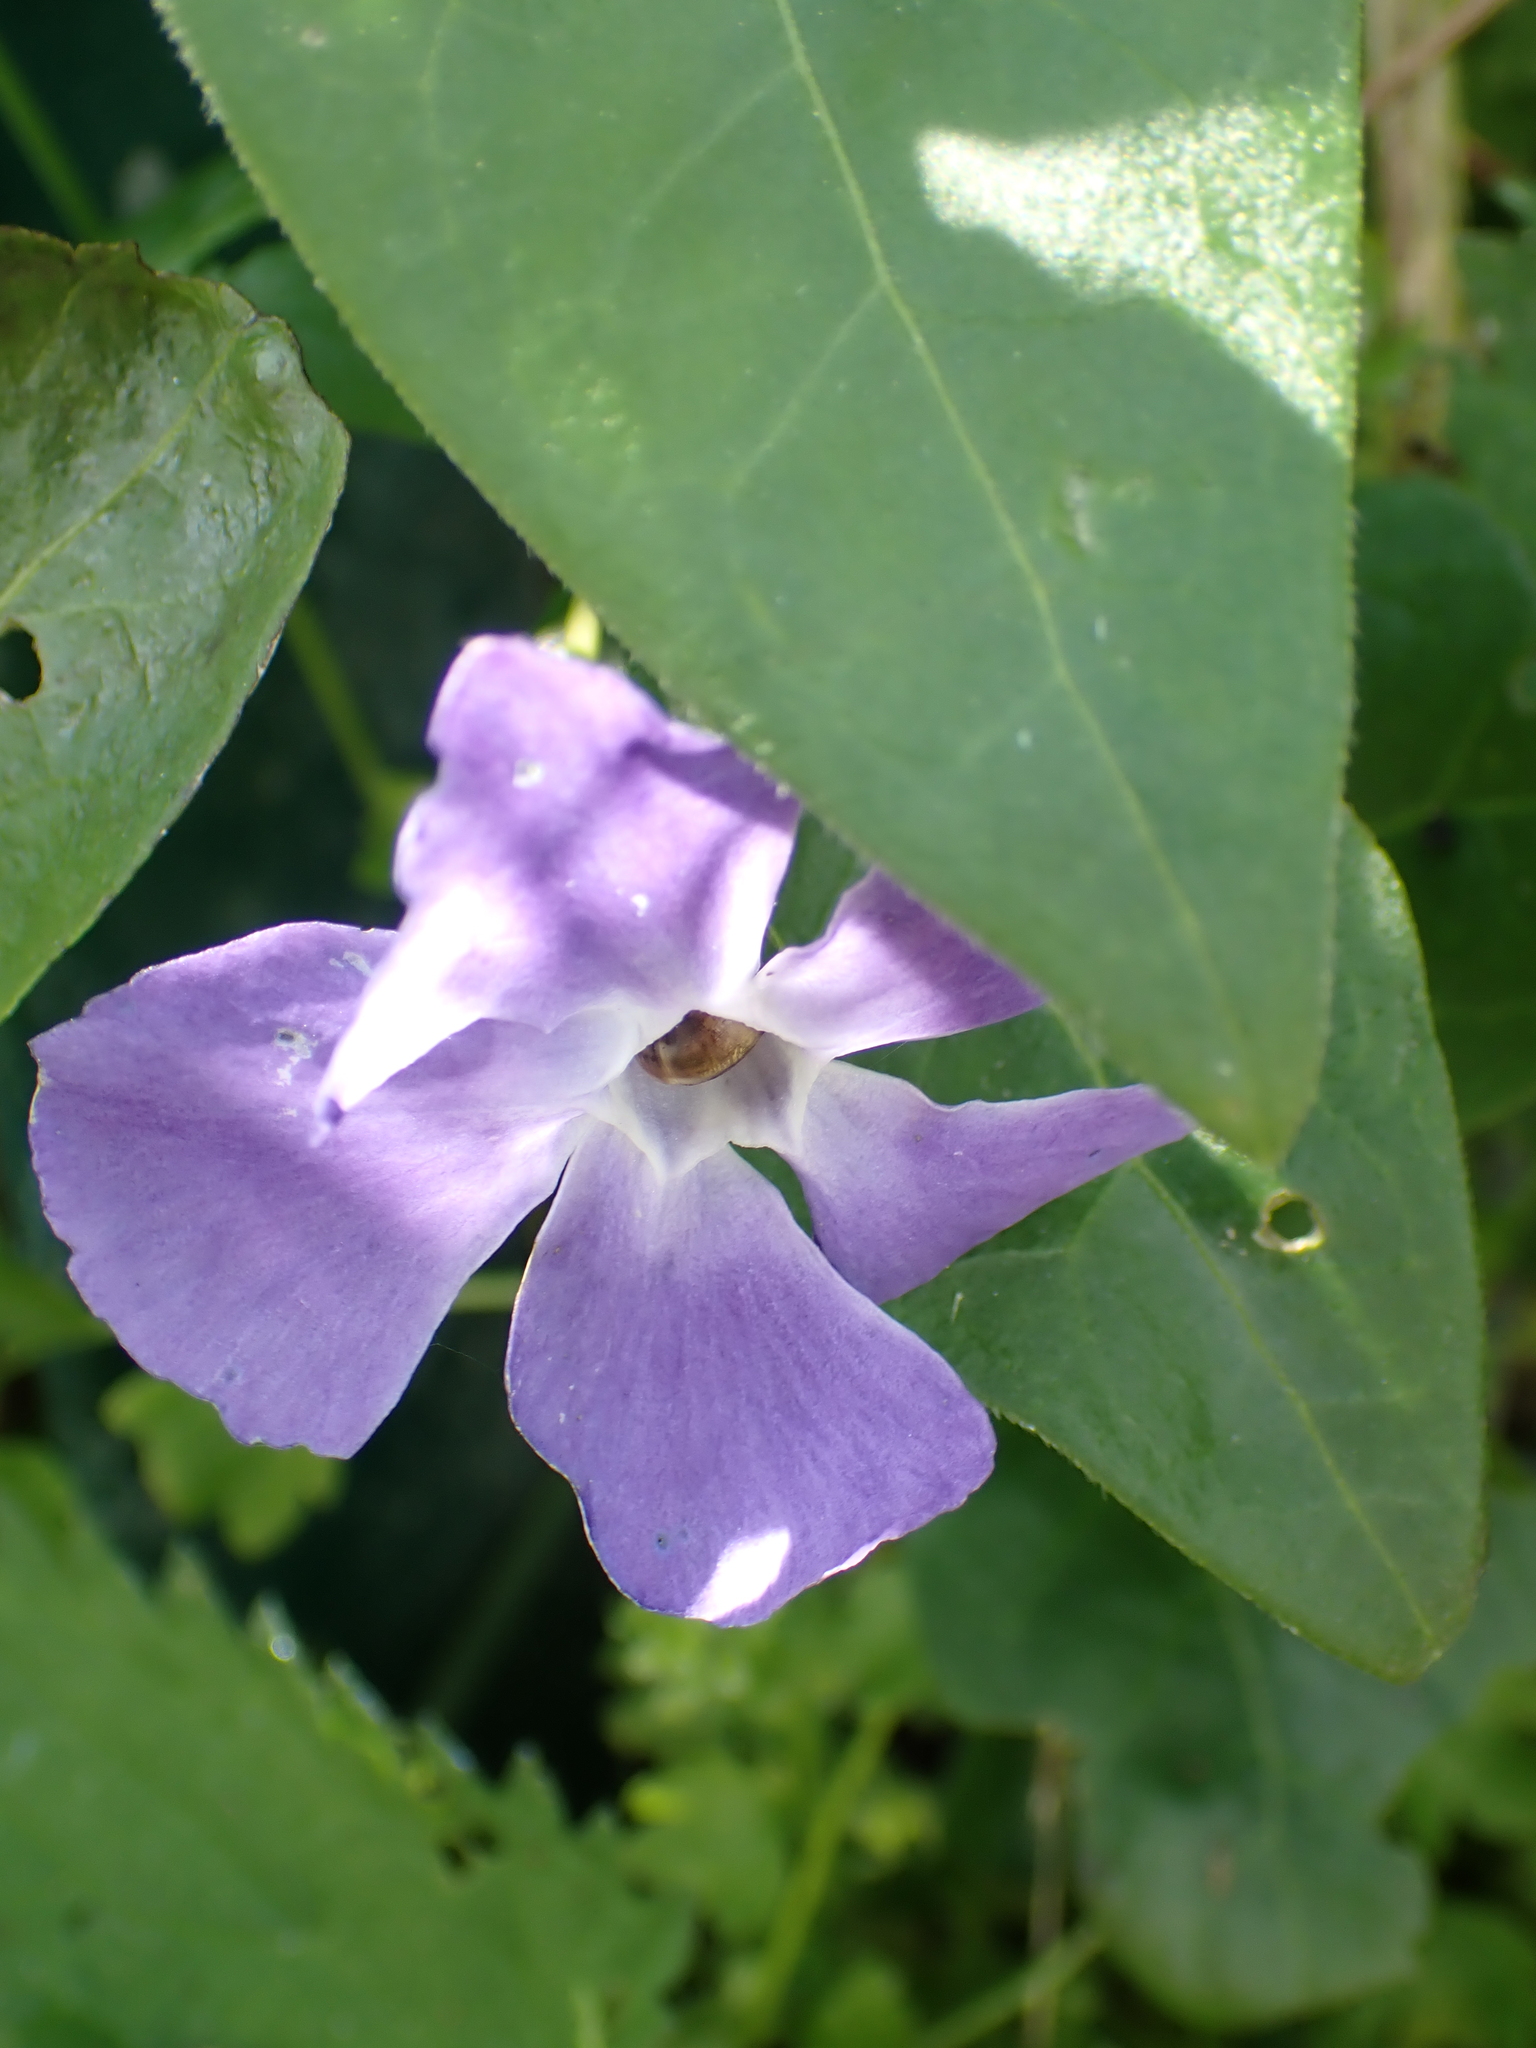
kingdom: Plantae
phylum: Tracheophyta
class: Magnoliopsida
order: Gentianales
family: Apocynaceae
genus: Vinca
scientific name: Vinca major
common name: Greater periwinkle
